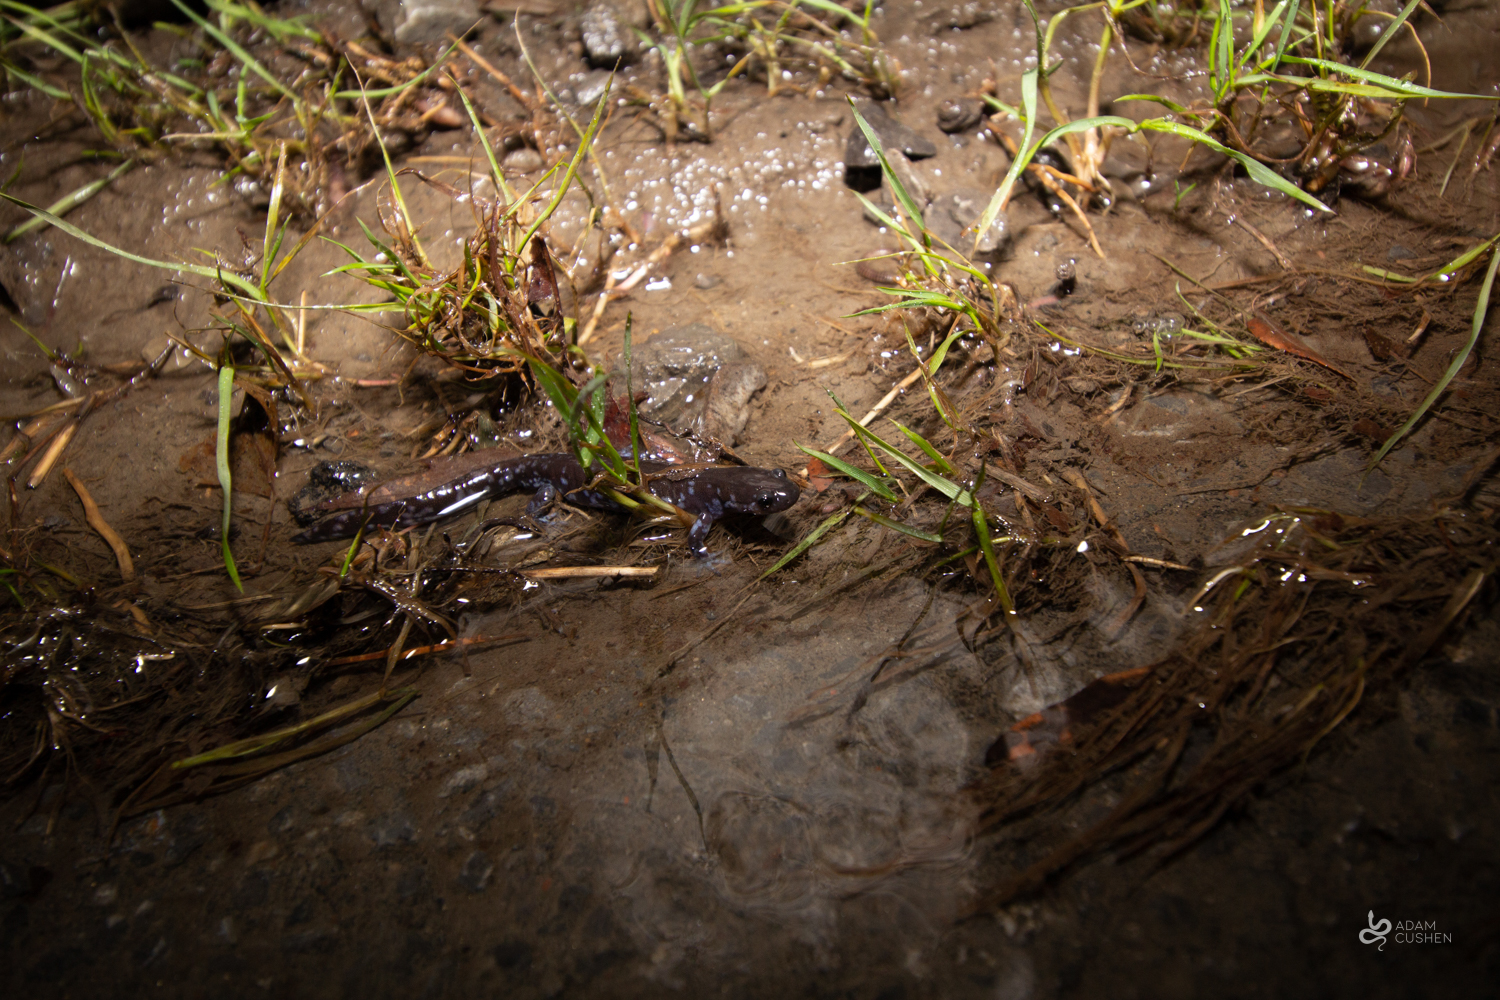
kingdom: Animalia
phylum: Chordata
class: Amphibia
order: Caudata
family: Ambystomatidae
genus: Ambystoma
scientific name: Ambystoma laterale
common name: Blue-spotted salamander
